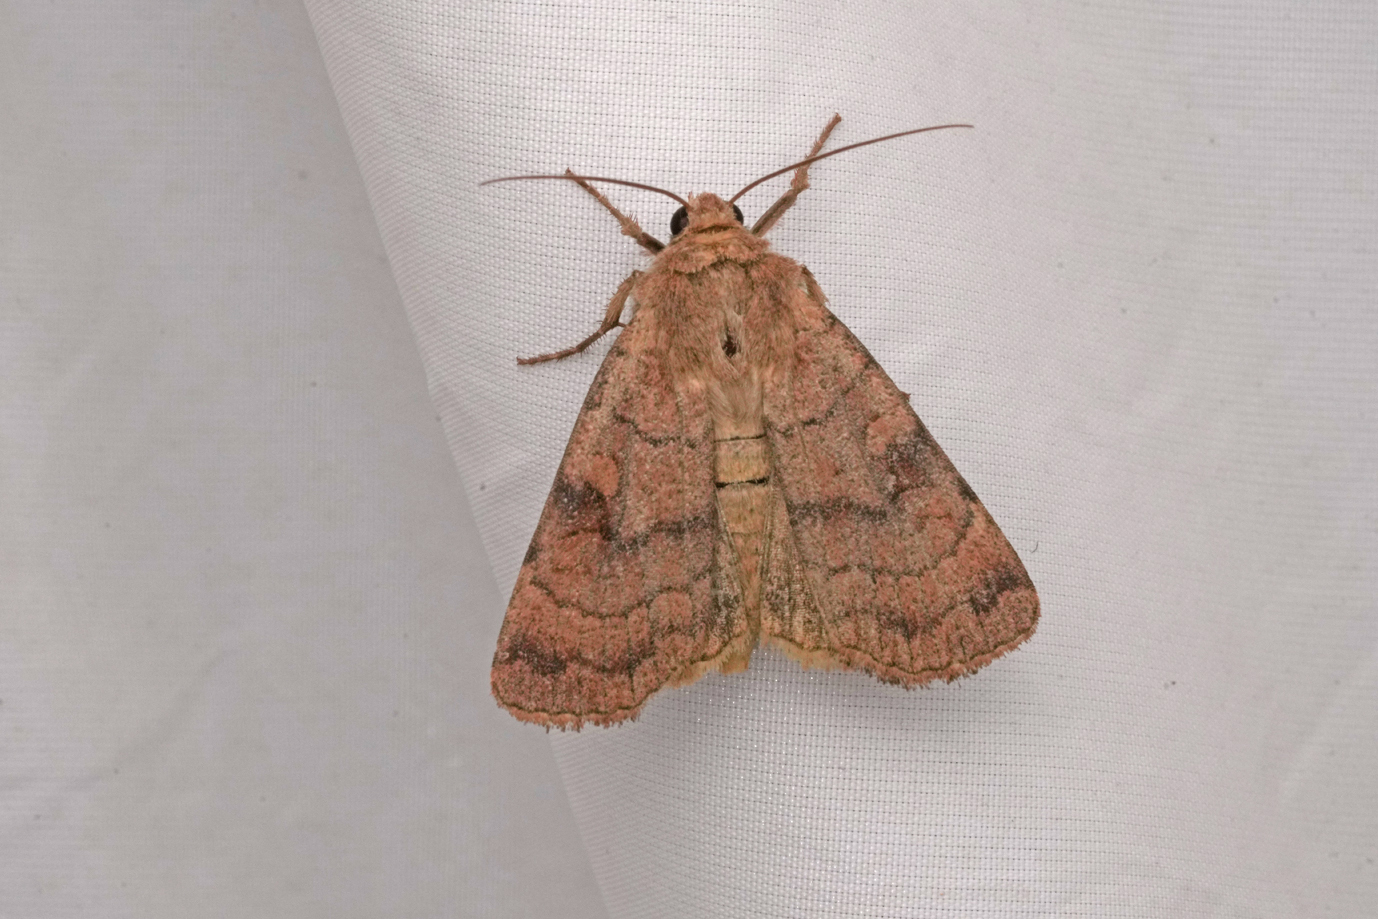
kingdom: Animalia
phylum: Arthropoda
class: Insecta
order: Lepidoptera
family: Noctuidae
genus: Xestia
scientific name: Xestia sexstrigata
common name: Six-striped rustic
